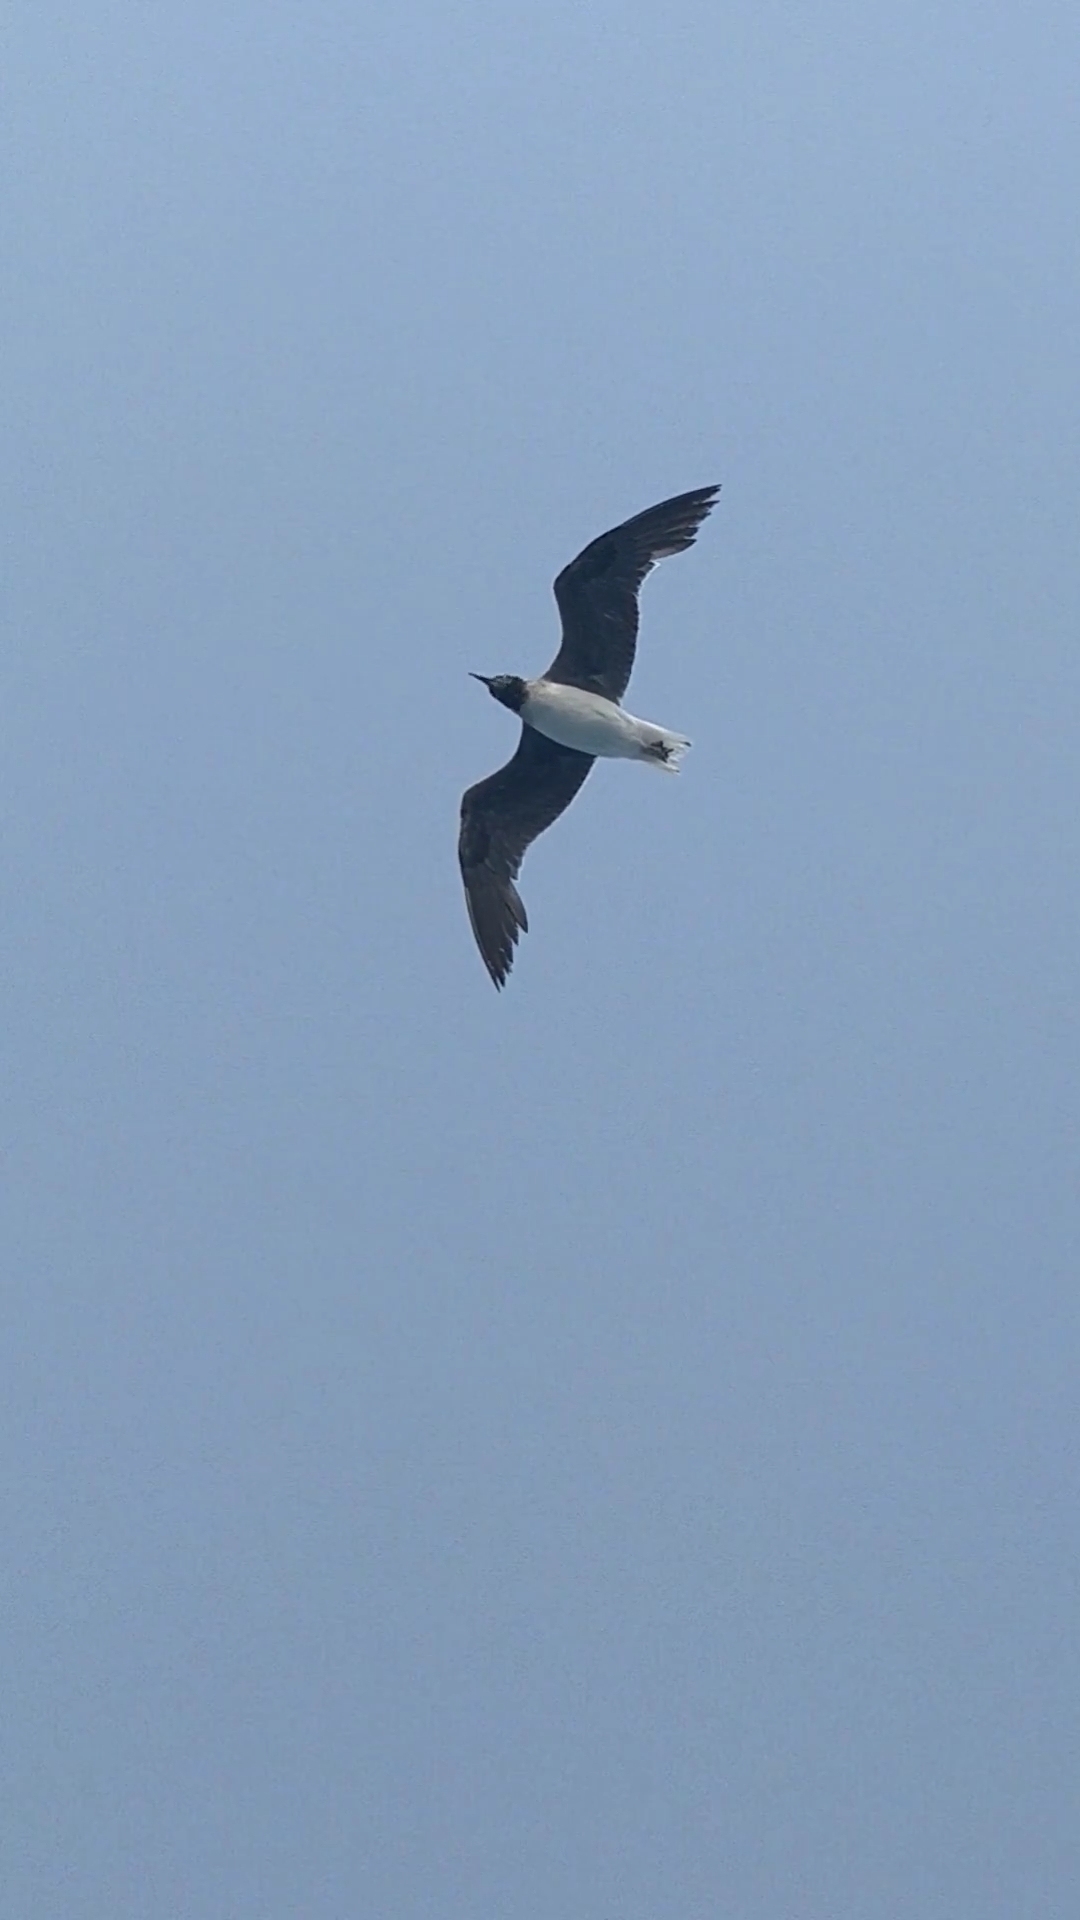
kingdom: Animalia
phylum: Chordata
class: Aves
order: Charadriiformes
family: Laridae
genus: Ichthyaetus
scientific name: Ichthyaetus leucophthalmus
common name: White-eyed gull
